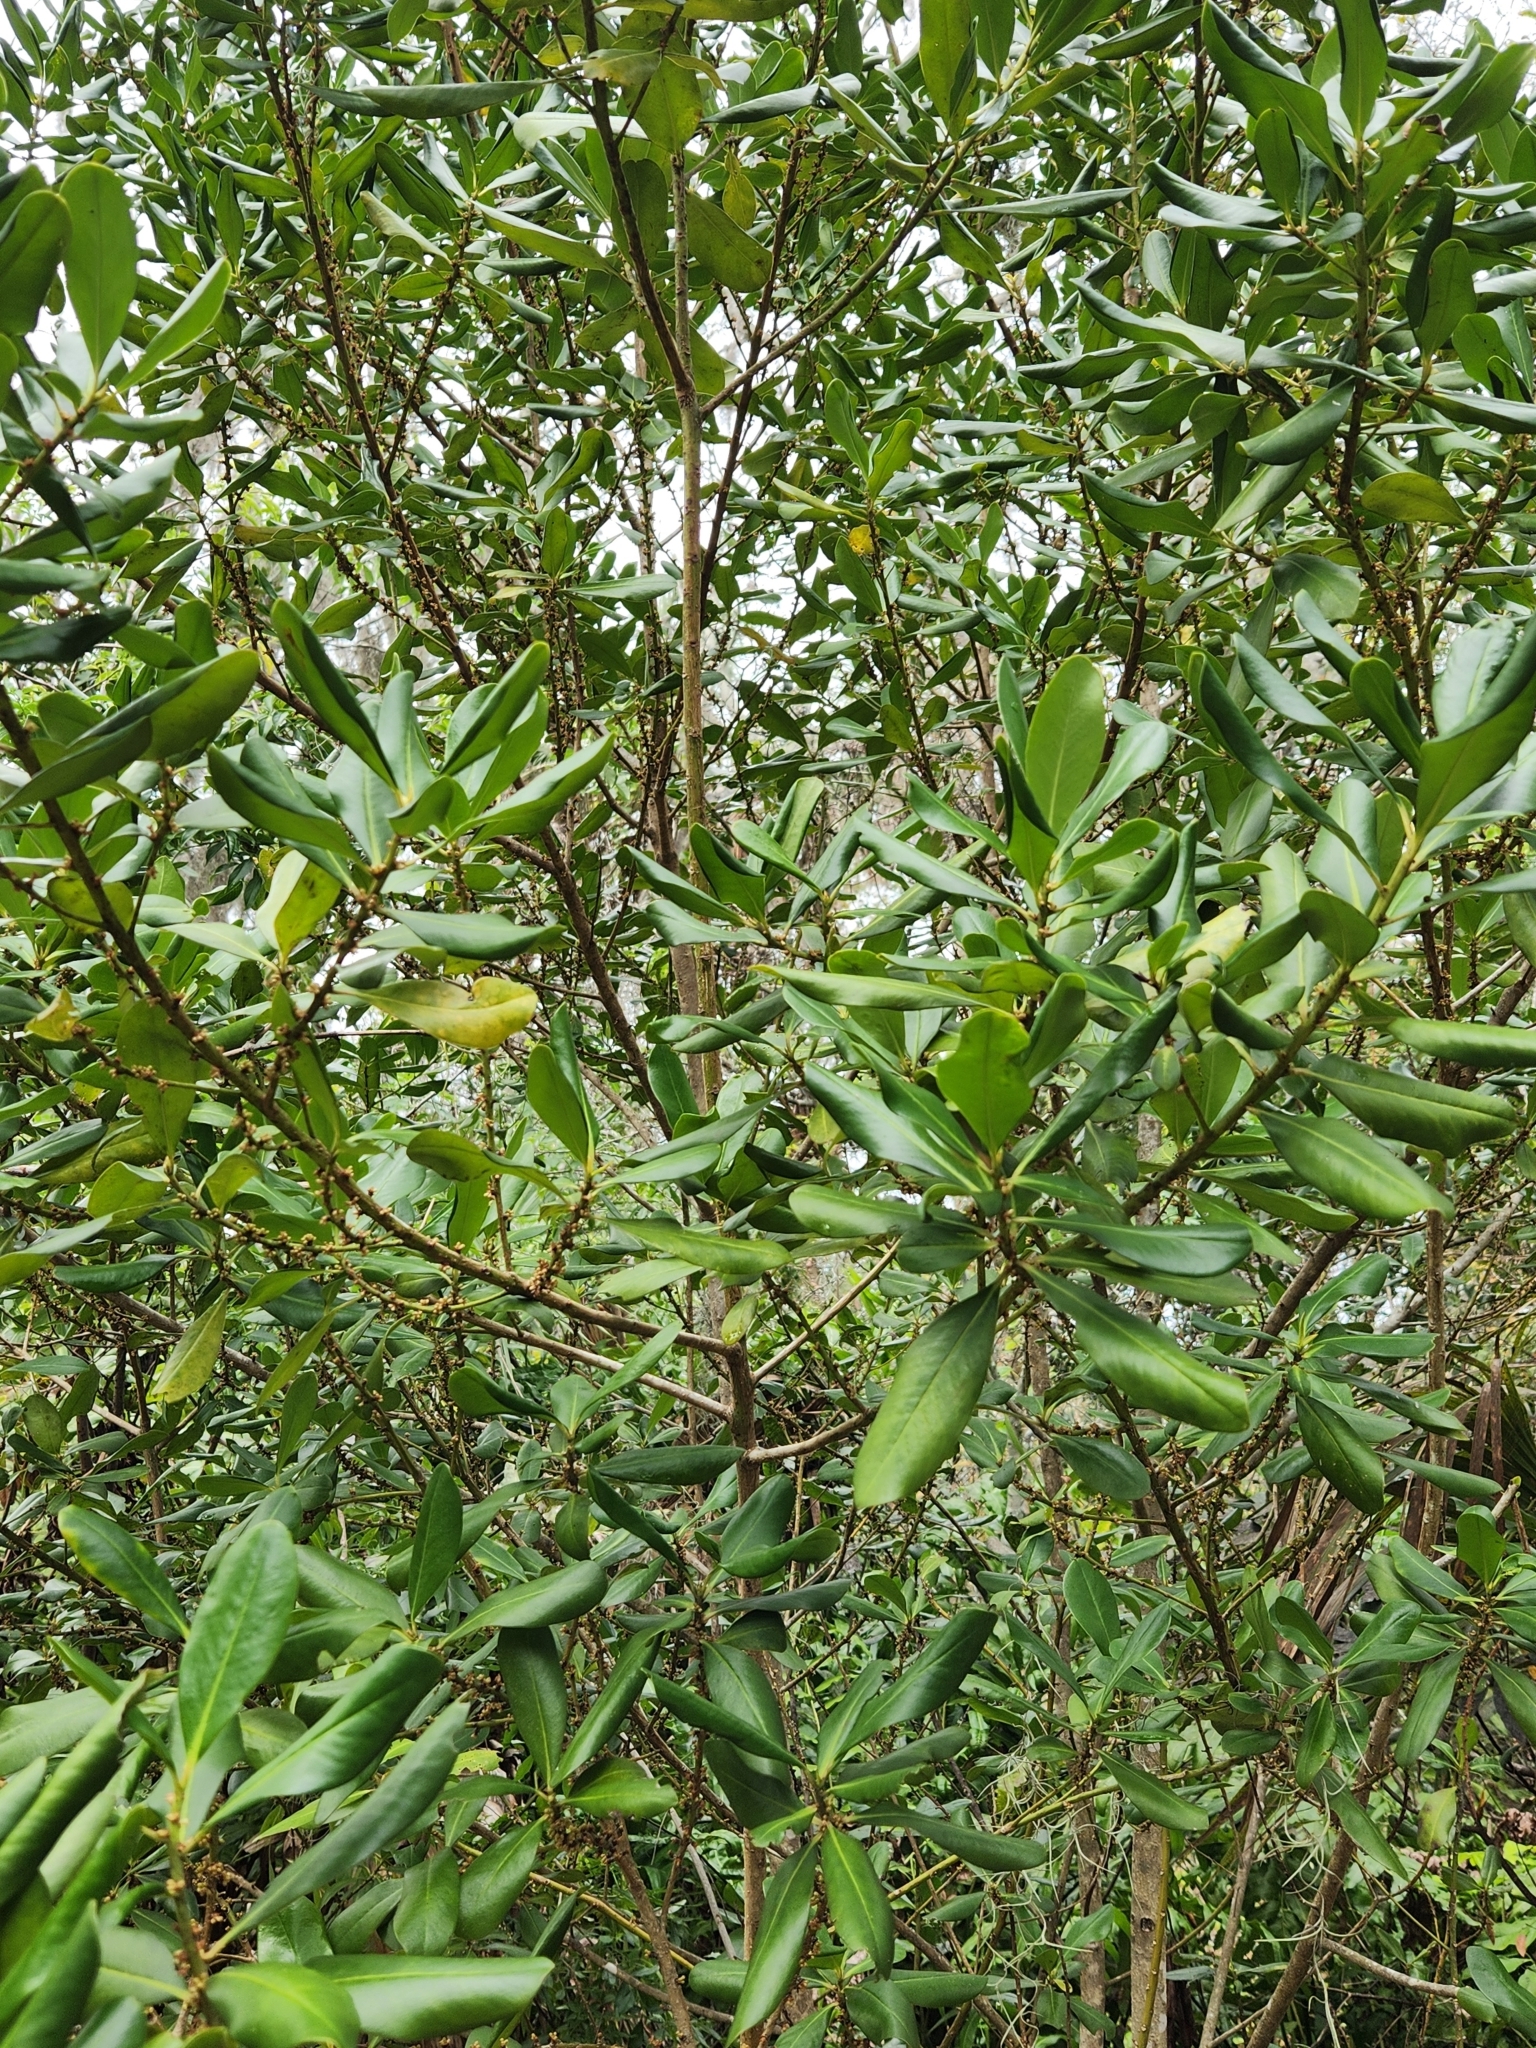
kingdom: Plantae
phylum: Tracheophyta
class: Magnoliopsida
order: Ericales
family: Primulaceae
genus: Myrsine
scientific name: Myrsine floridana
